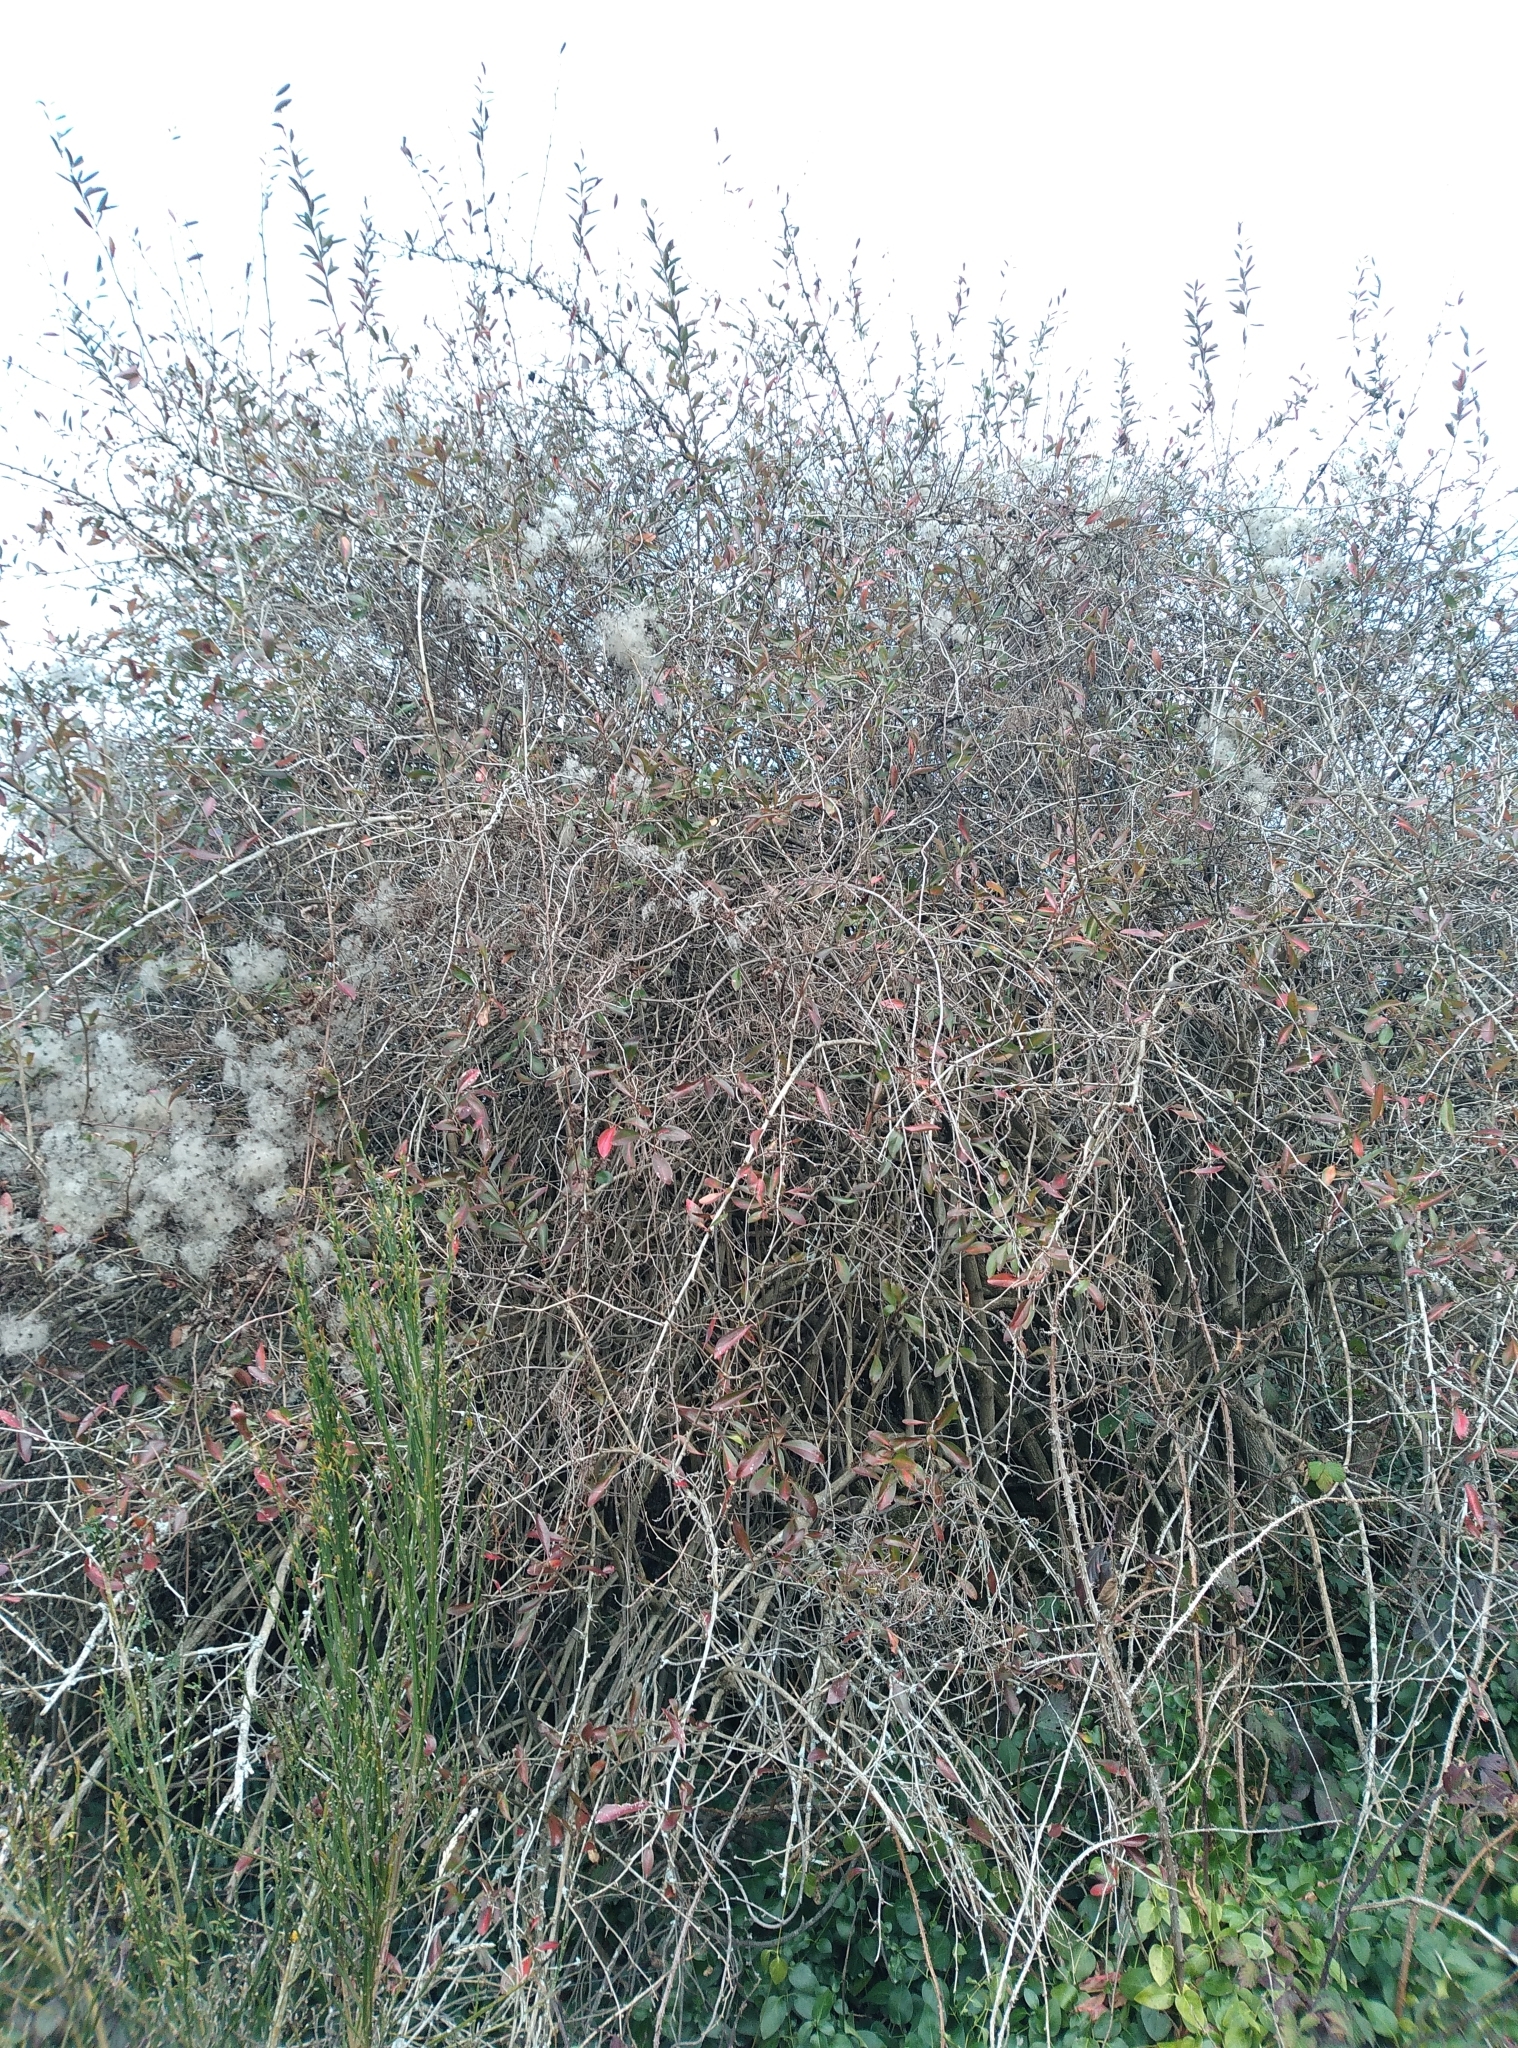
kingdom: Plantae
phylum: Tracheophyta
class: Magnoliopsida
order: Ranunculales
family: Berberidaceae
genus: Berberis
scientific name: Berberis glaucocarpa
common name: Great barberry
